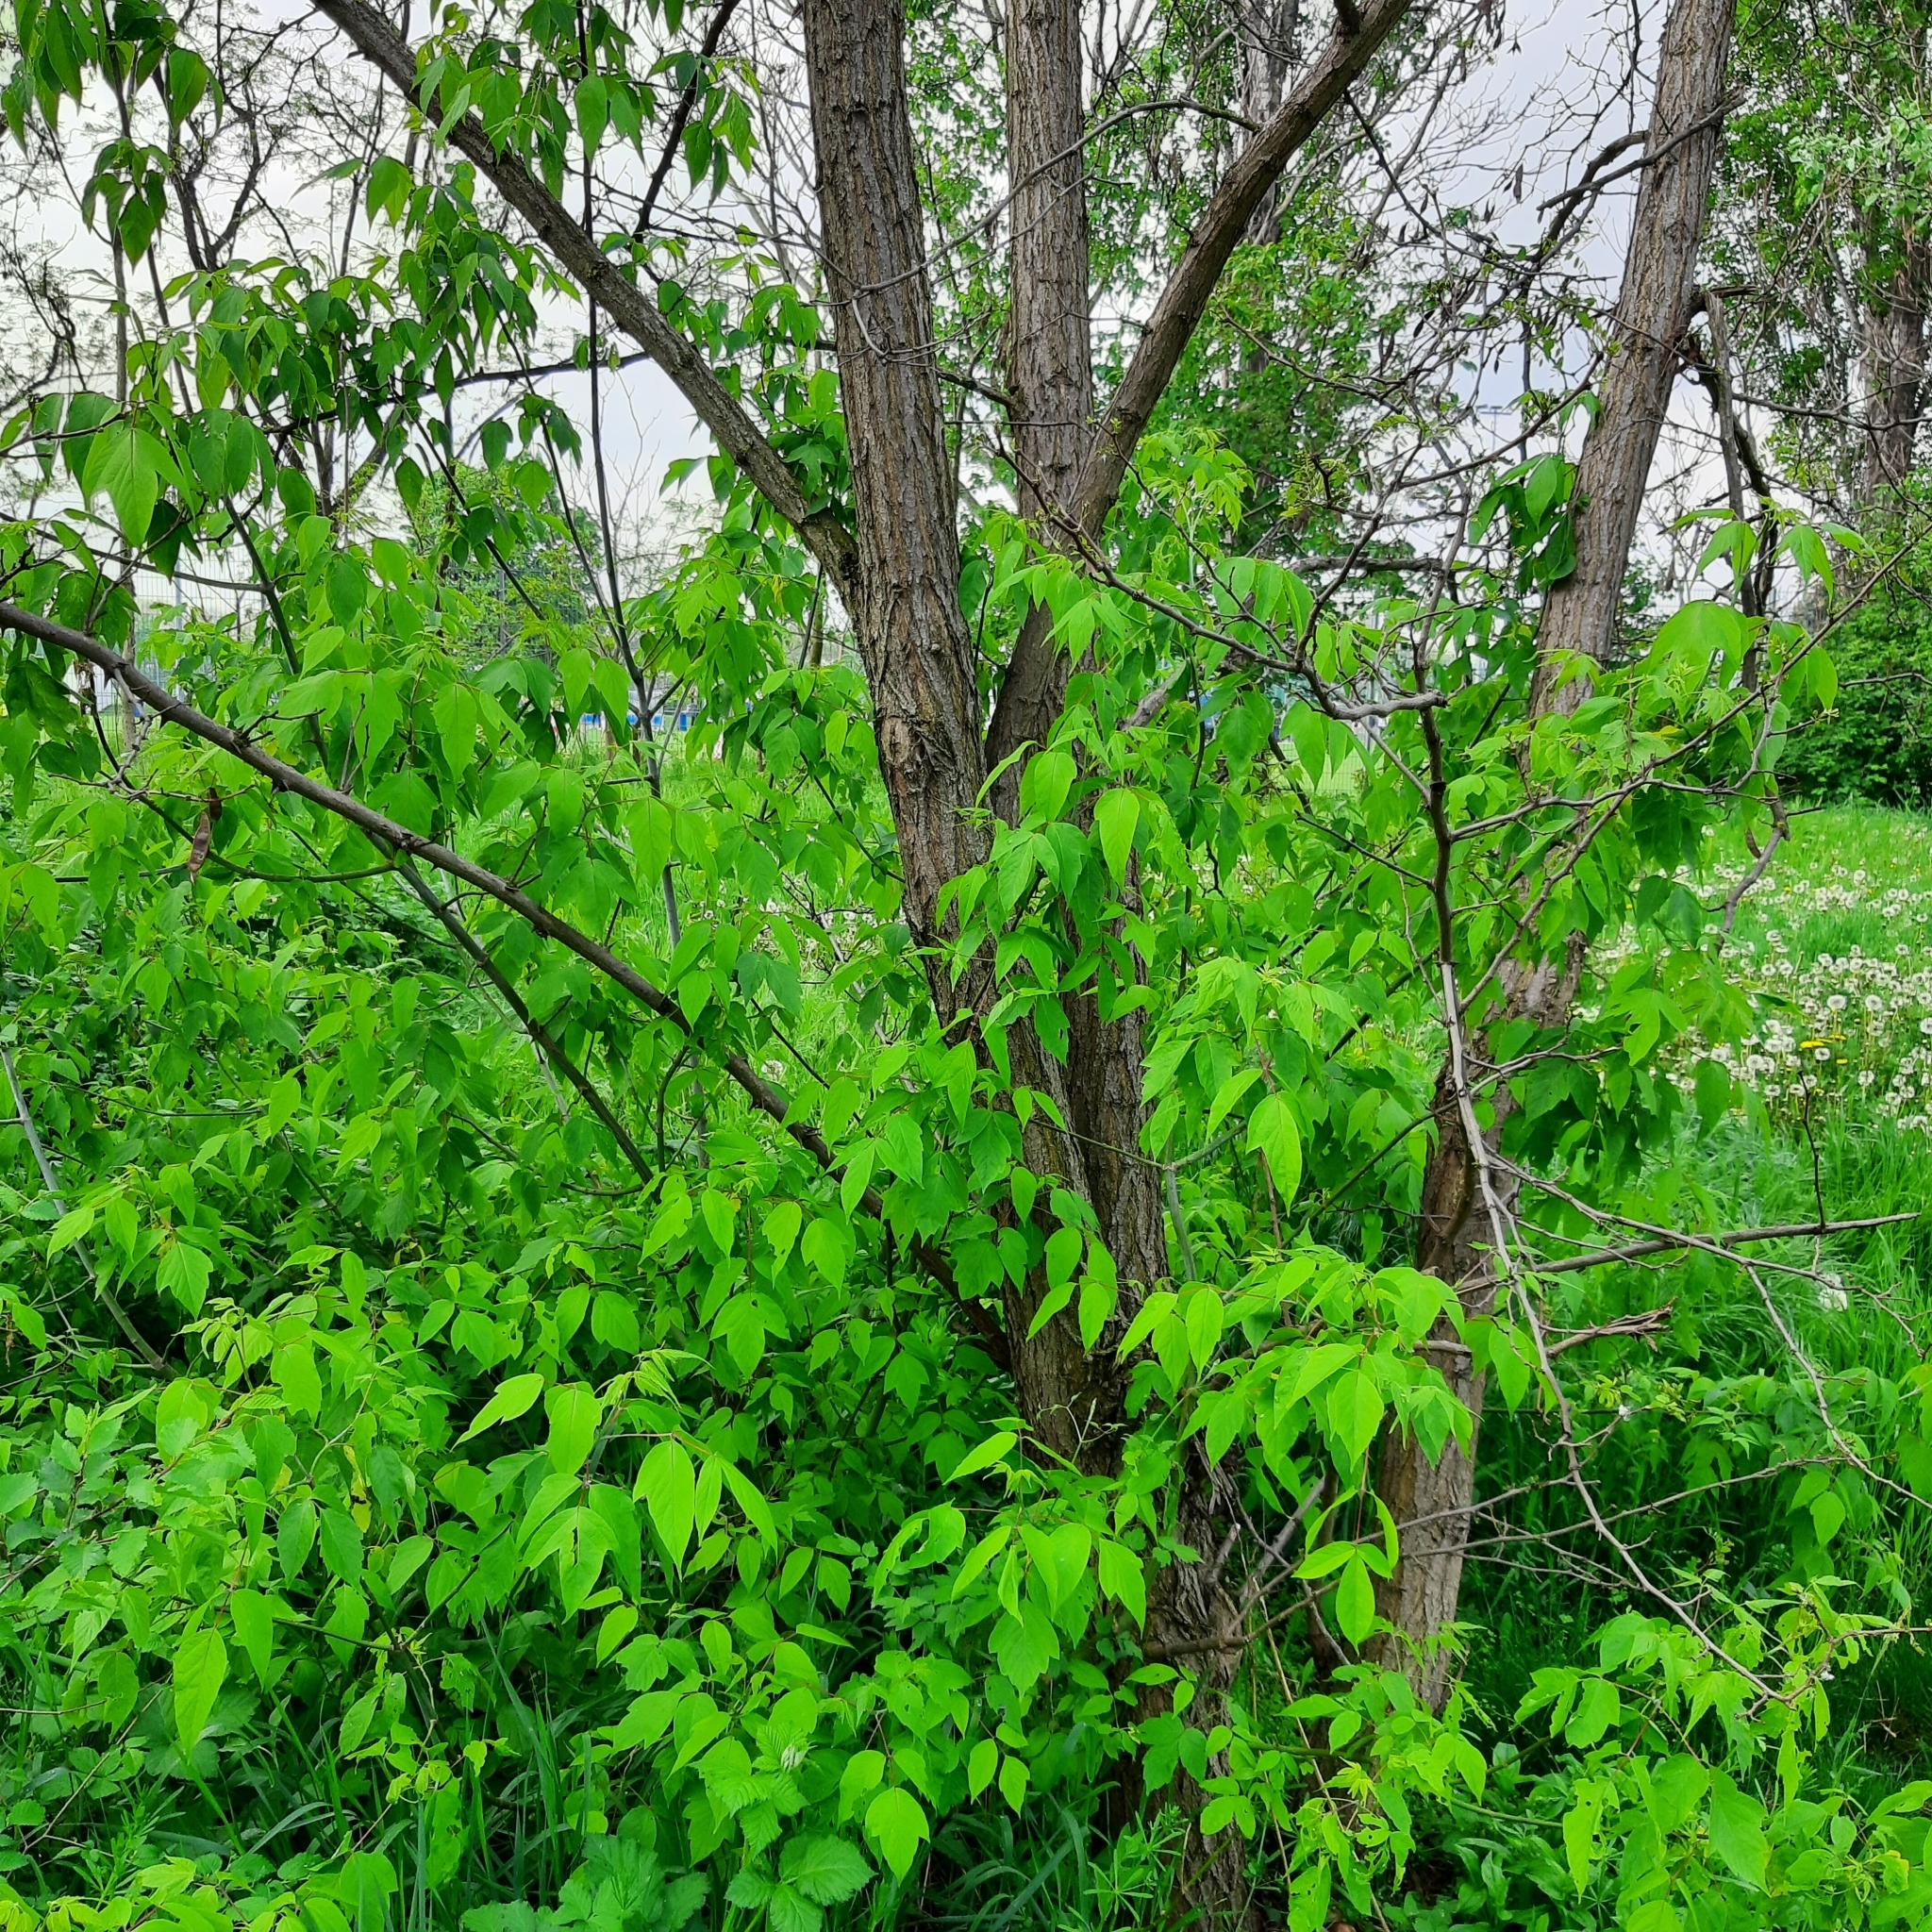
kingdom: Plantae
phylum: Tracheophyta
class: Magnoliopsida
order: Sapindales
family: Sapindaceae
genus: Acer
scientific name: Acer negundo
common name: Ashleaf maple
